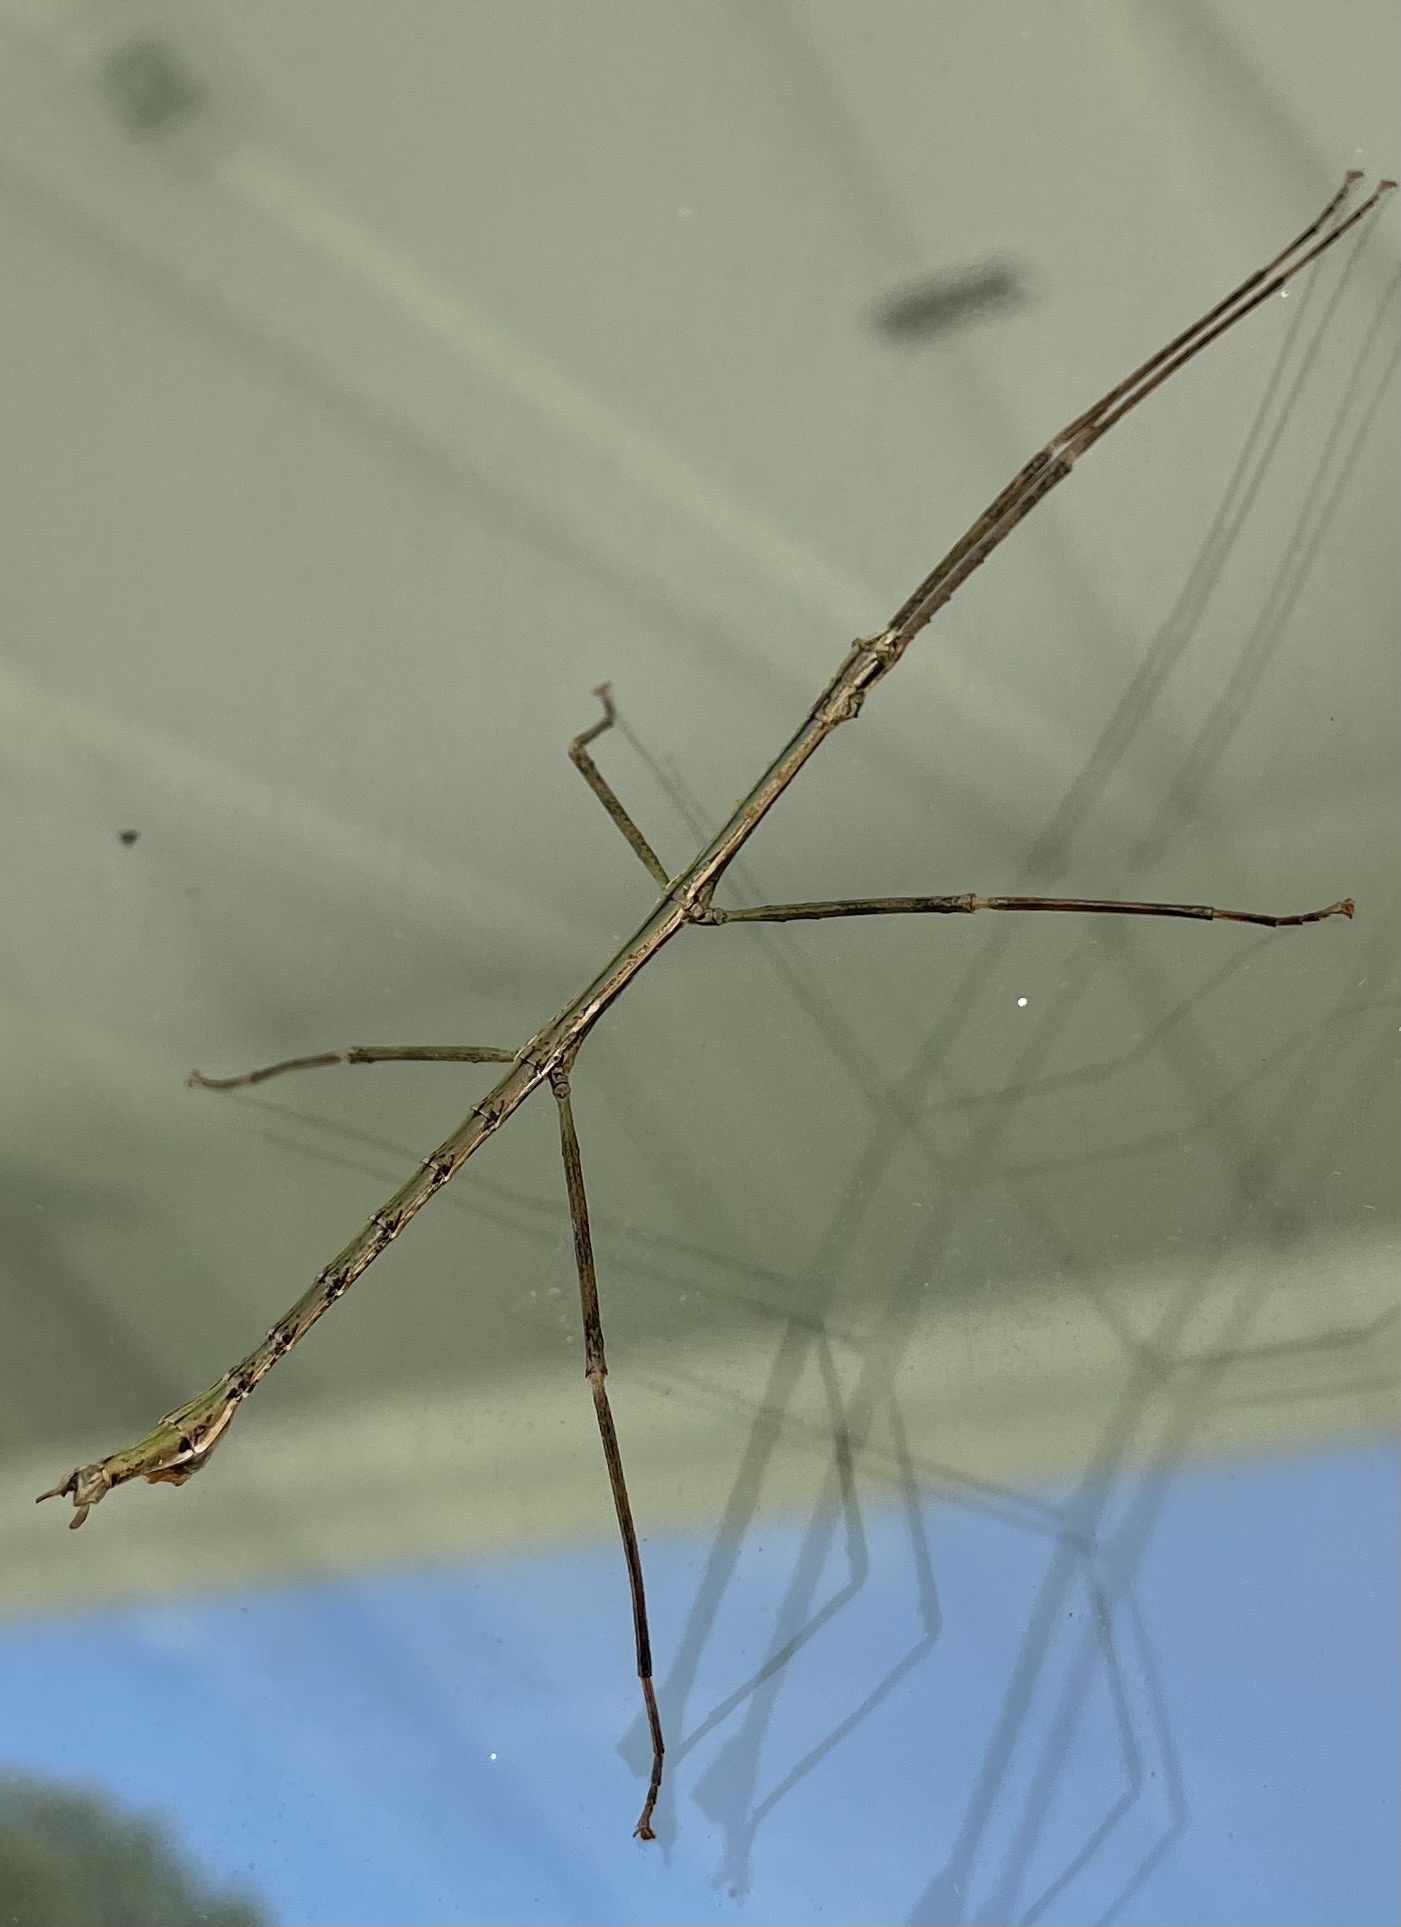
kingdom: Animalia
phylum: Arthropoda
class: Insecta
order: Phasmida
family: Phasmatidae
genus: Clitarchus
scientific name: Clitarchus hookeri
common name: Smooth stick insect
